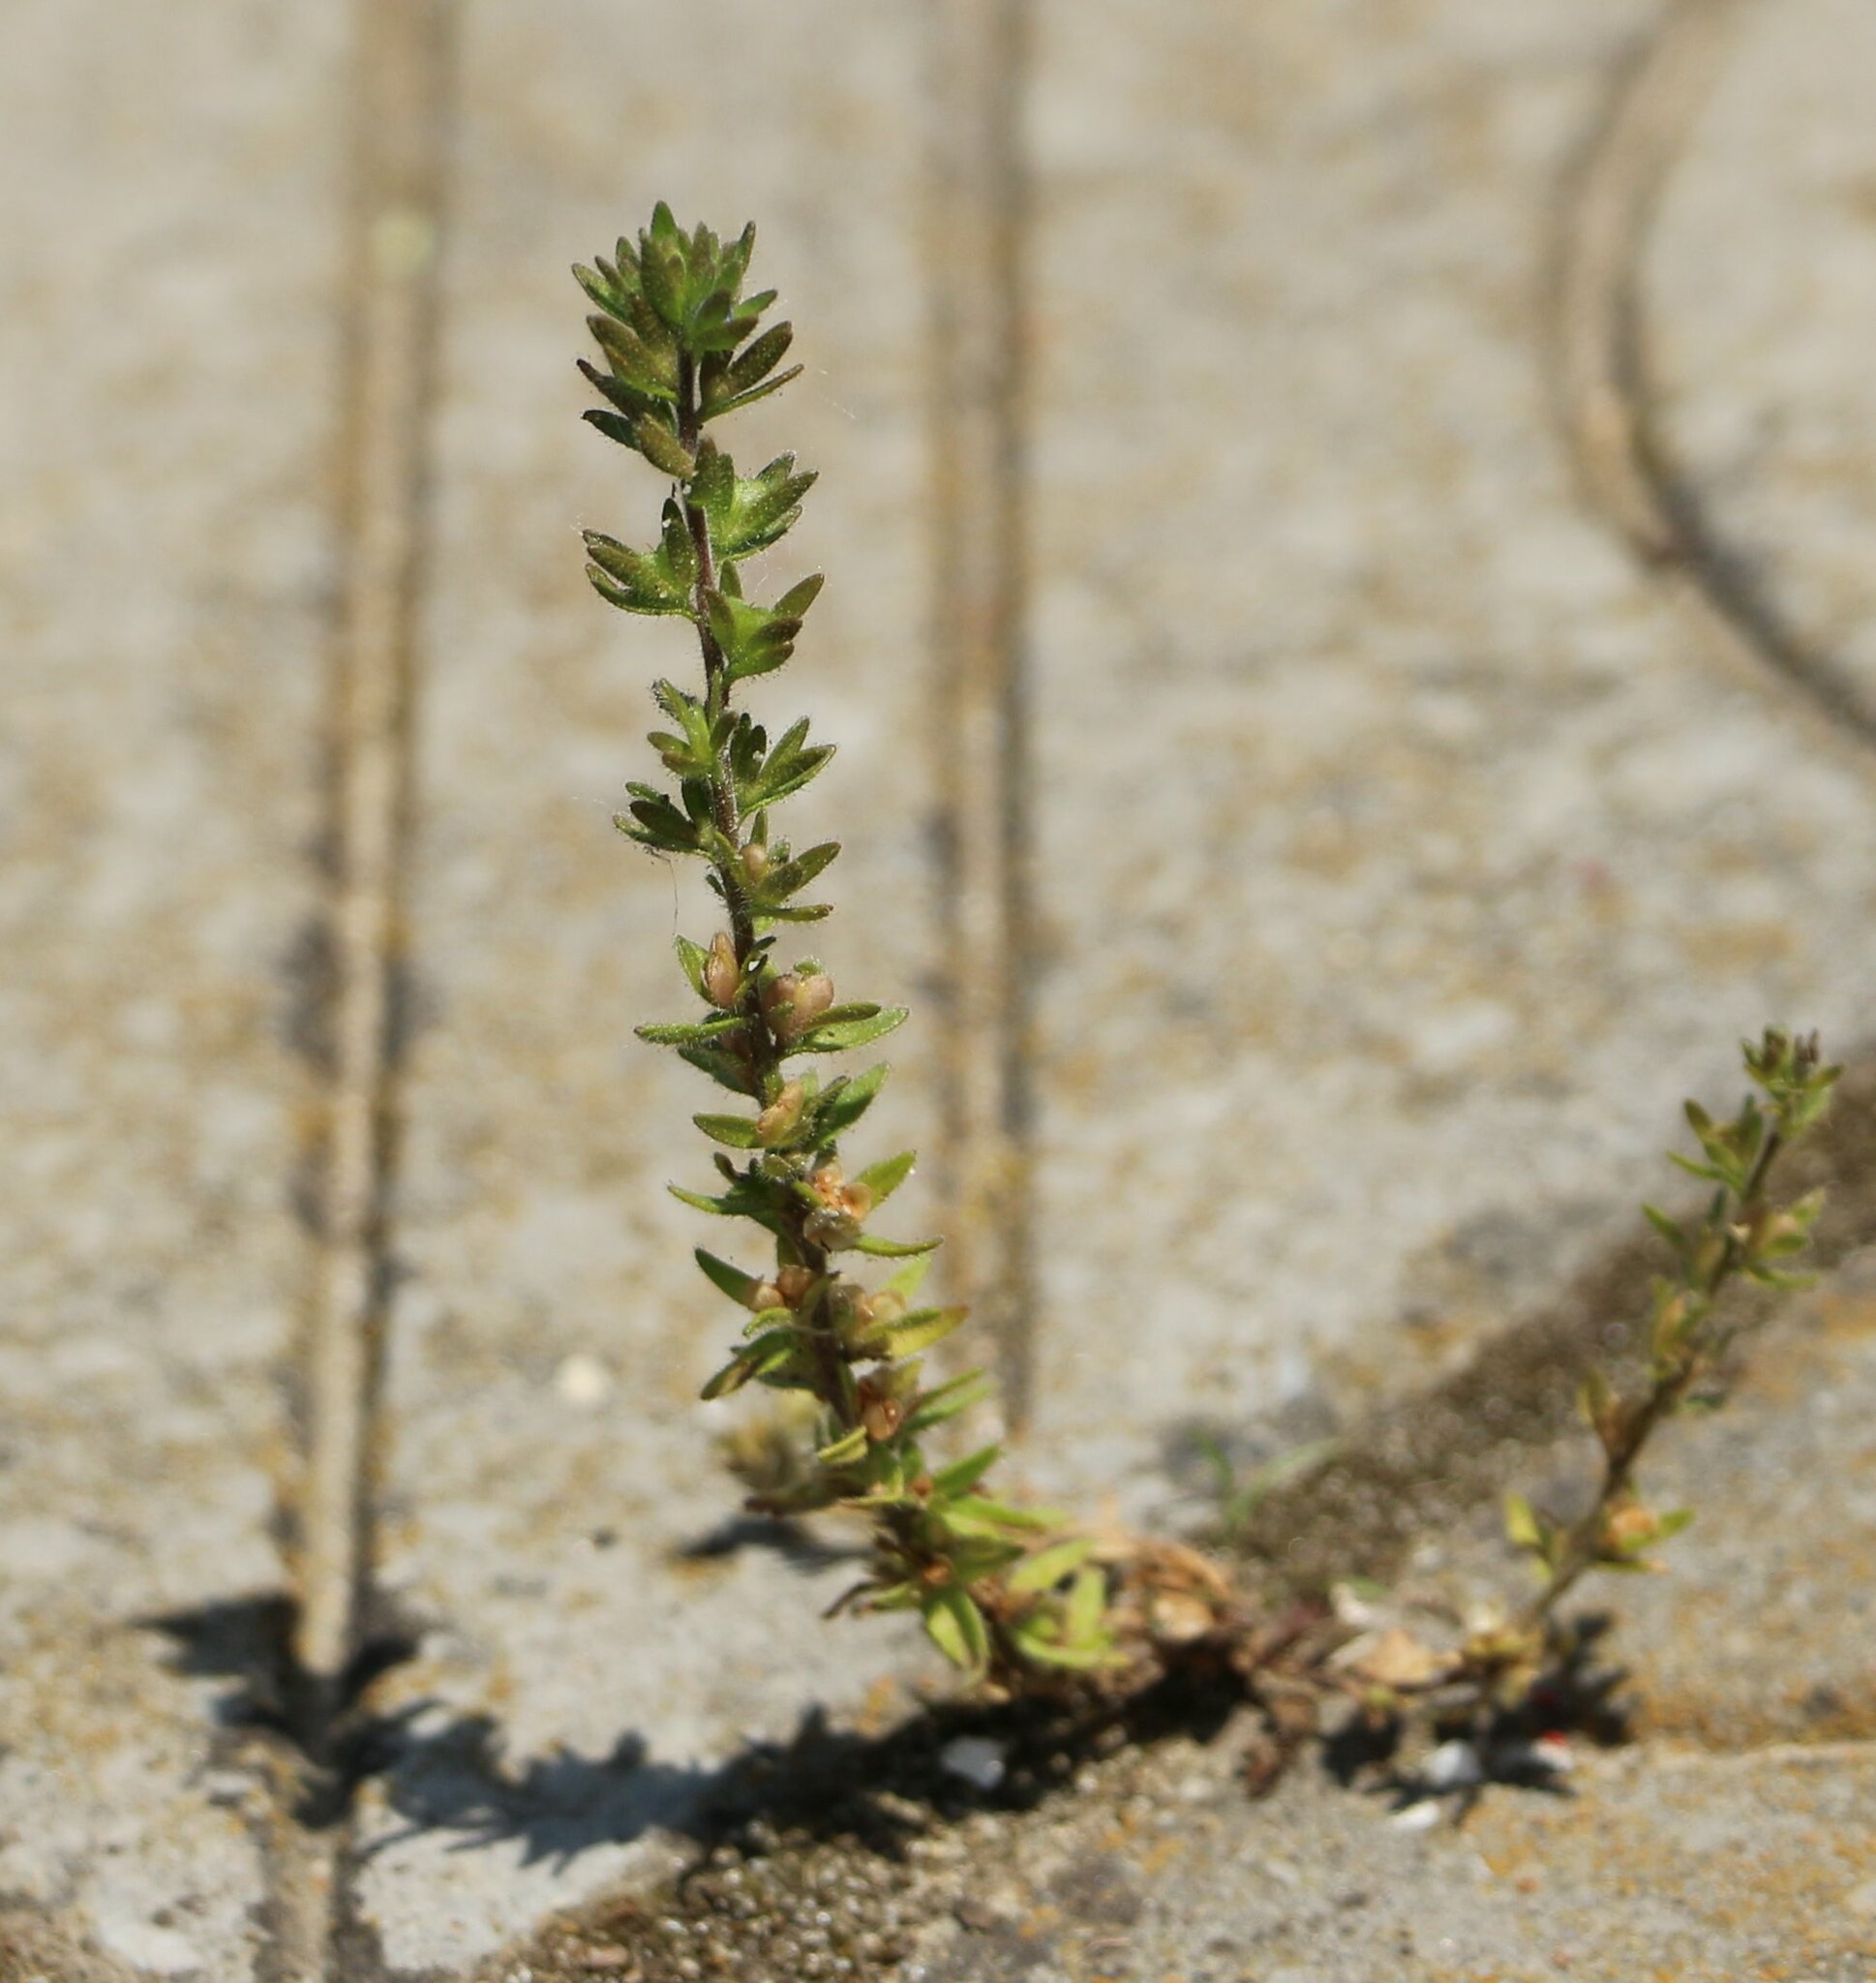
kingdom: Plantae
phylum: Tracheophyta
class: Magnoliopsida
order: Lamiales
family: Plantaginaceae
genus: Veronica
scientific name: Veronica arvensis
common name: Corn speedwell
